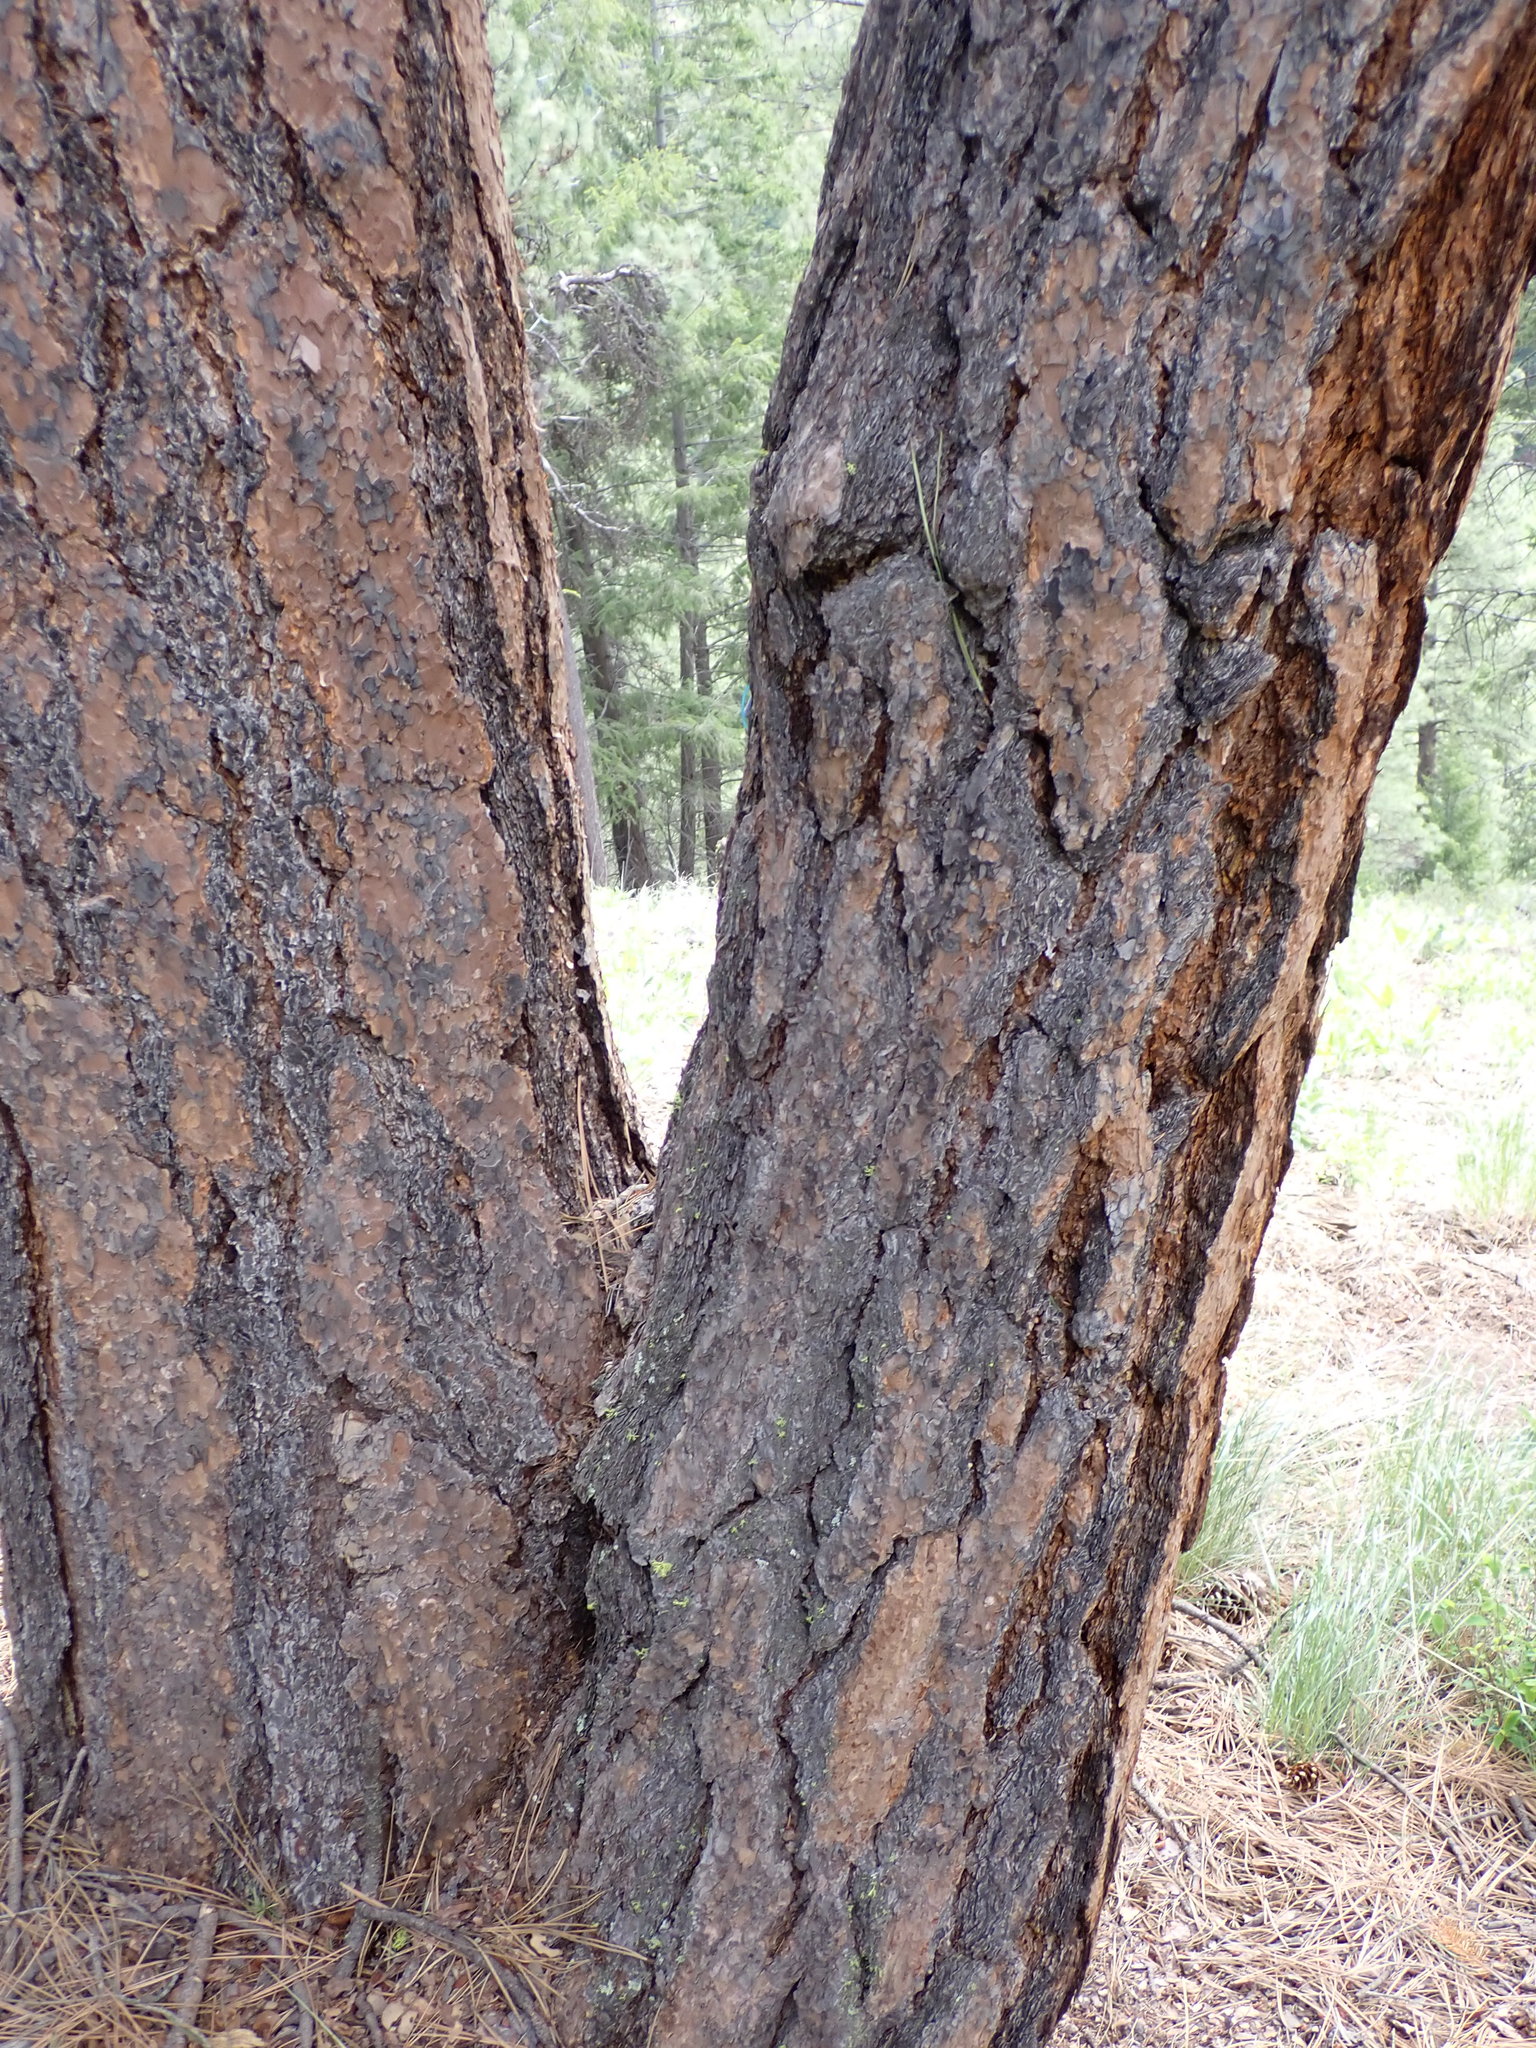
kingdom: Plantae
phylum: Tracheophyta
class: Pinopsida
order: Pinales
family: Pinaceae
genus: Pinus
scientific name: Pinus ponderosa
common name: Western yellow-pine
